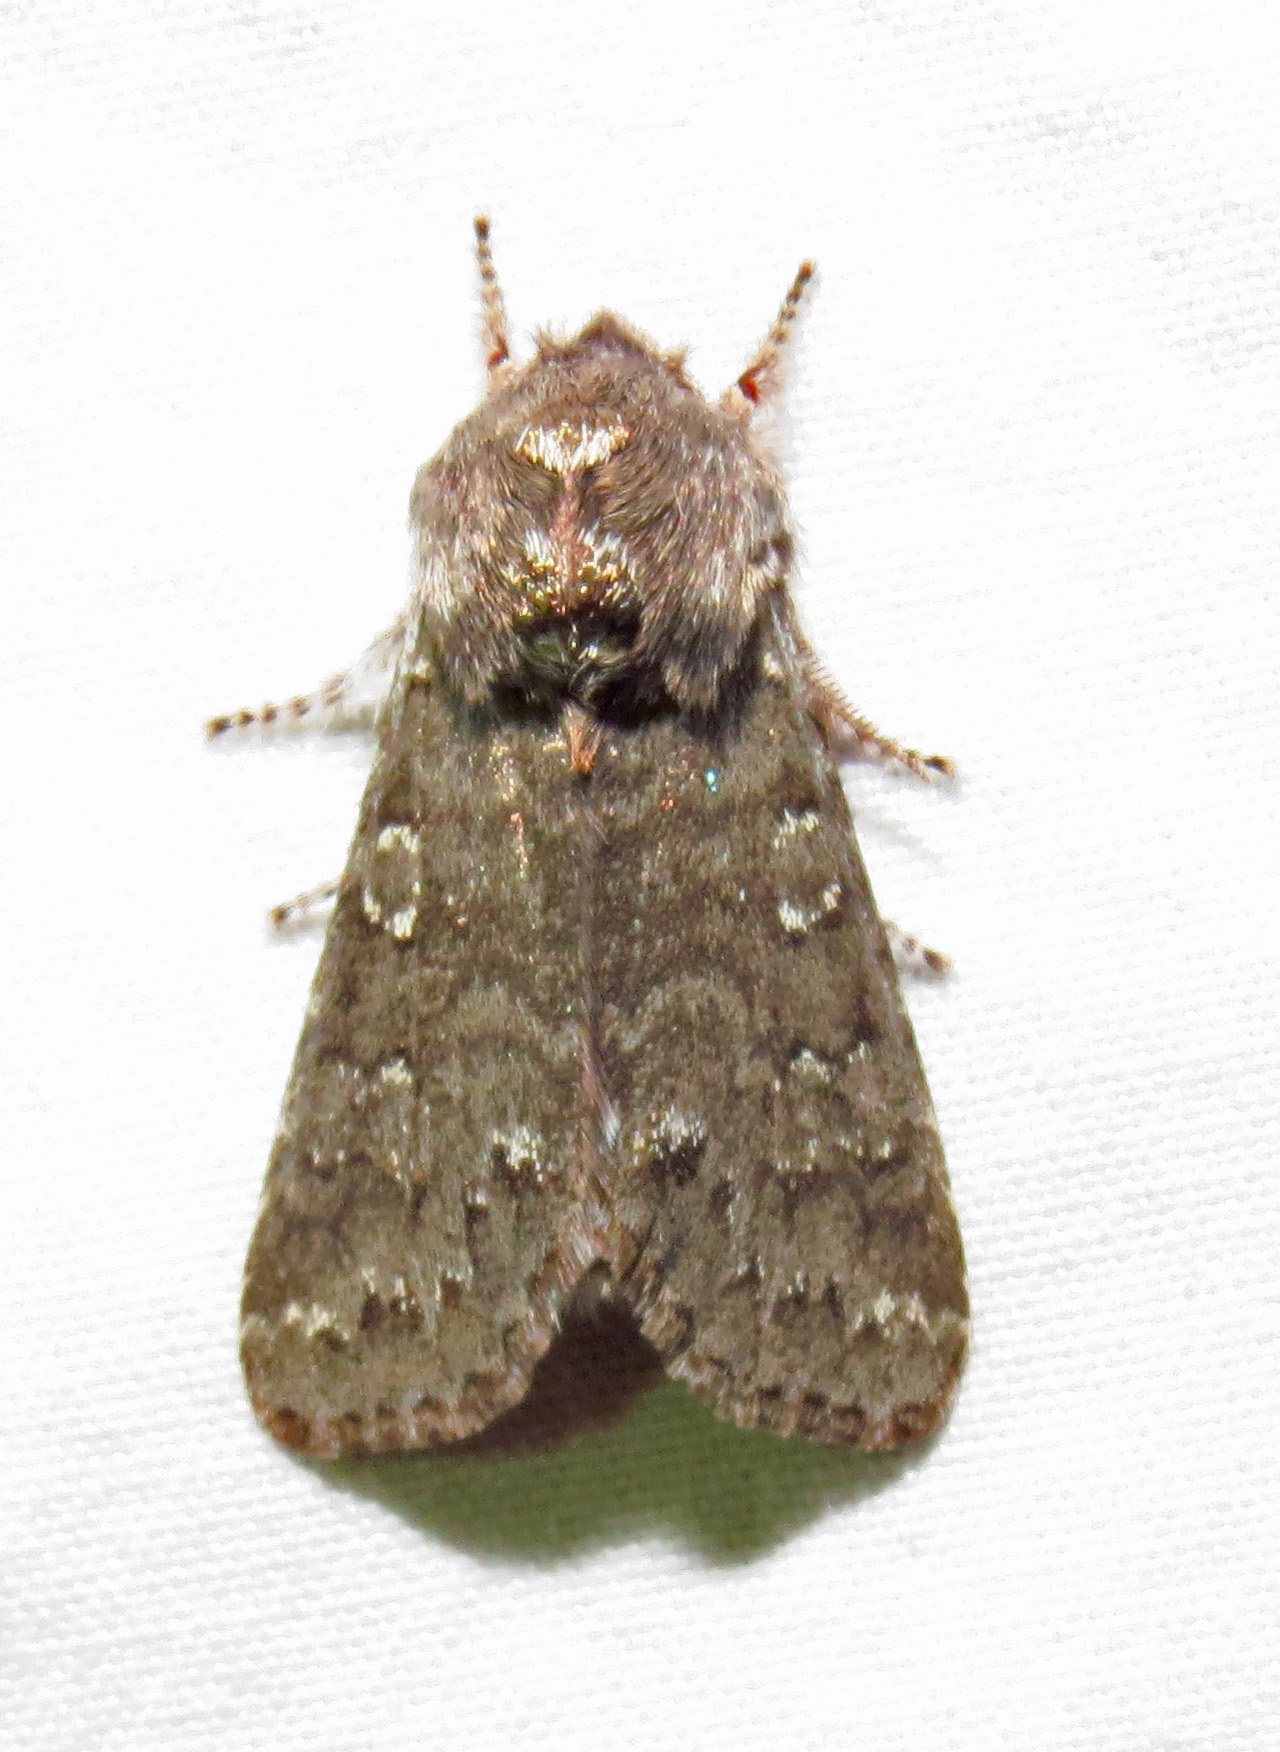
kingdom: Animalia
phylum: Arthropoda
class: Insecta
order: Lepidoptera
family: Noctuidae
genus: Psaphida
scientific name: Psaphida rolandi
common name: Roland's sallow
